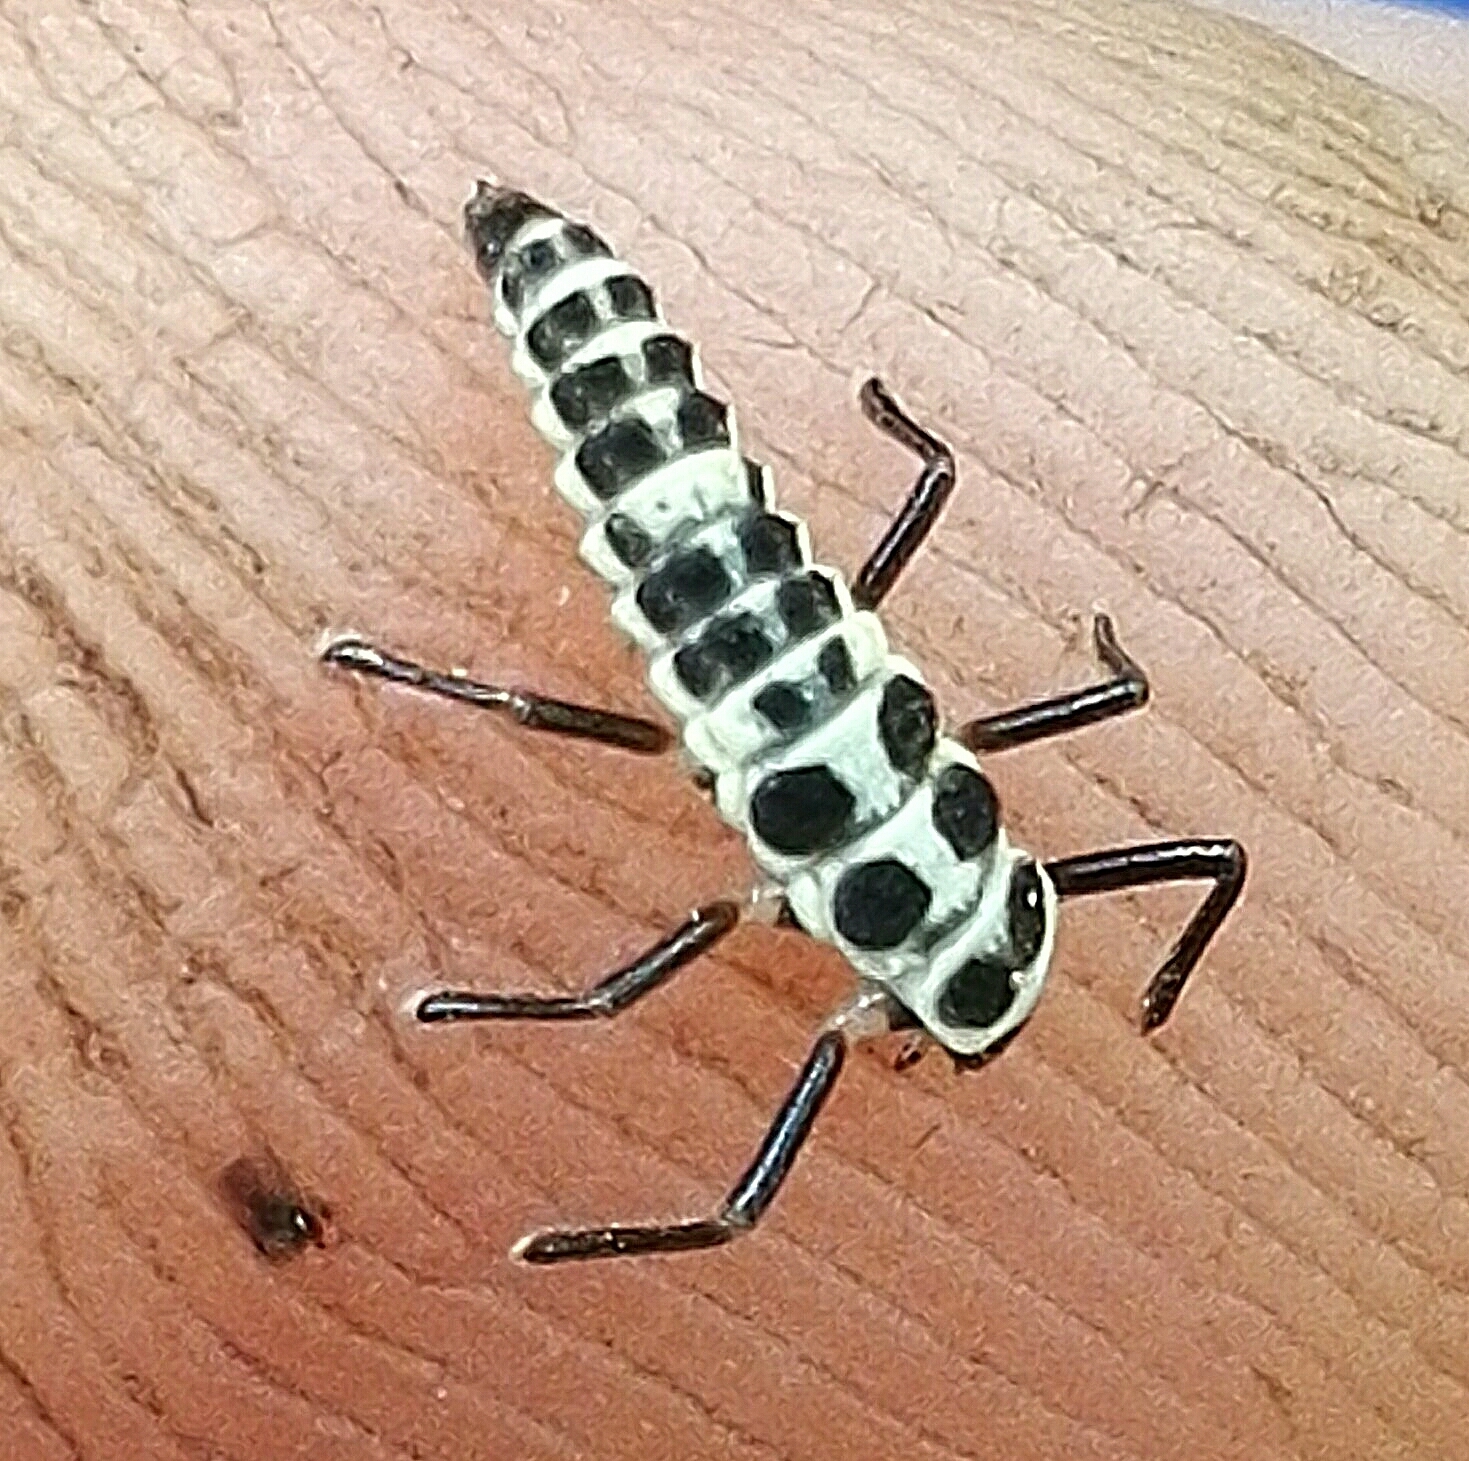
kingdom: Animalia
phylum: Arthropoda
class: Insecta
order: Coleoptera
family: Coccinellidae
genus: Calvia
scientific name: Calvia decemguttata
